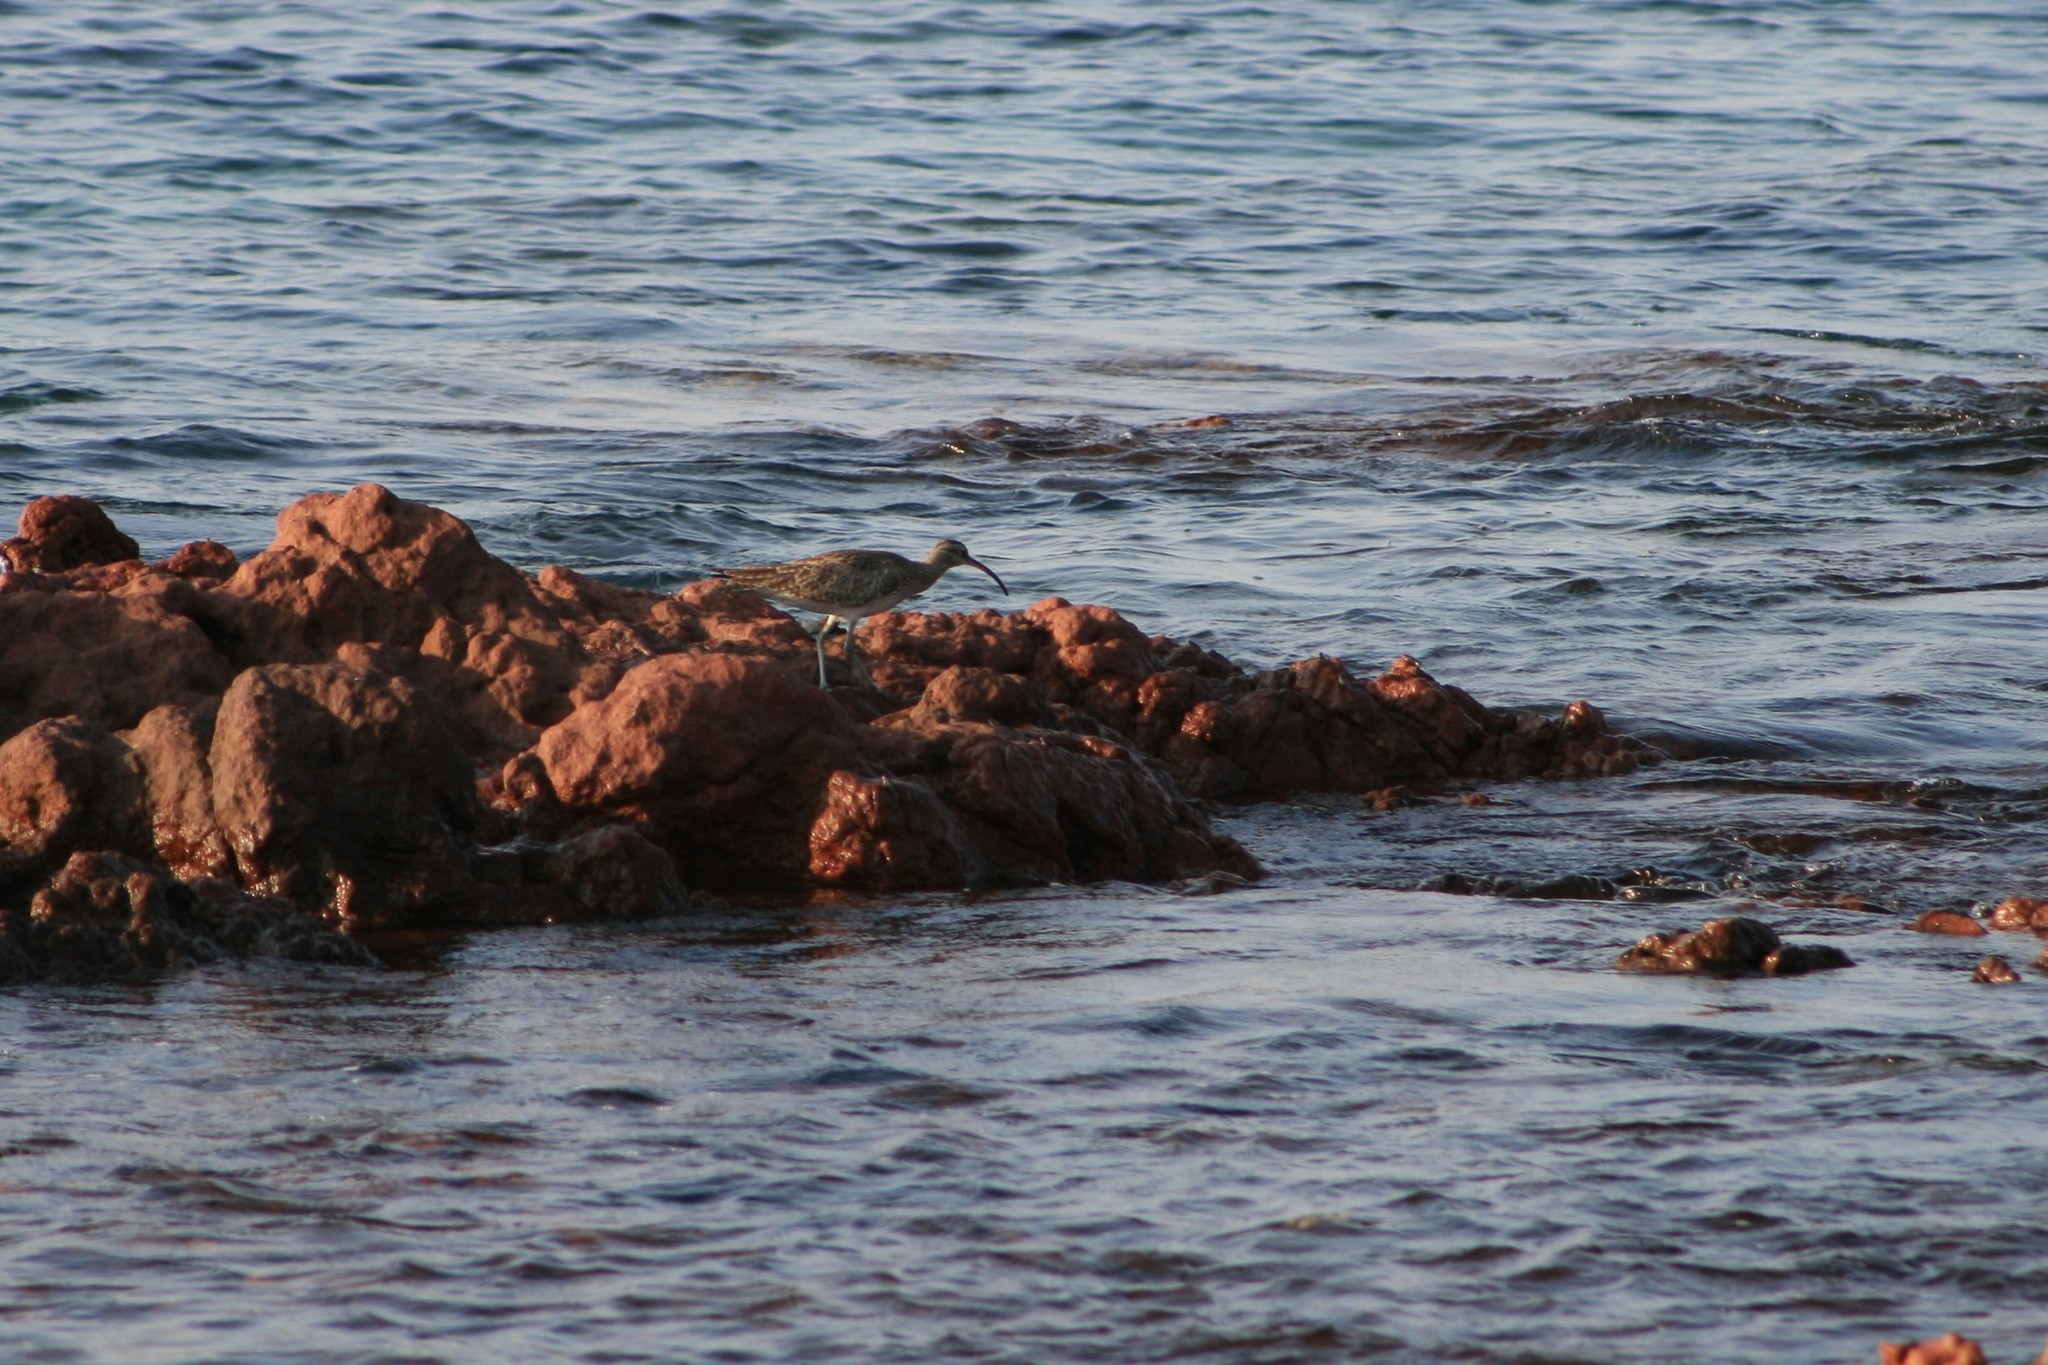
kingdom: Animalia
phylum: Chordata
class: Aves
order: Charadriiformes
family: Scolopacidae
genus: Numenius
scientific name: Numenius phaeopus
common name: Whimbrel
